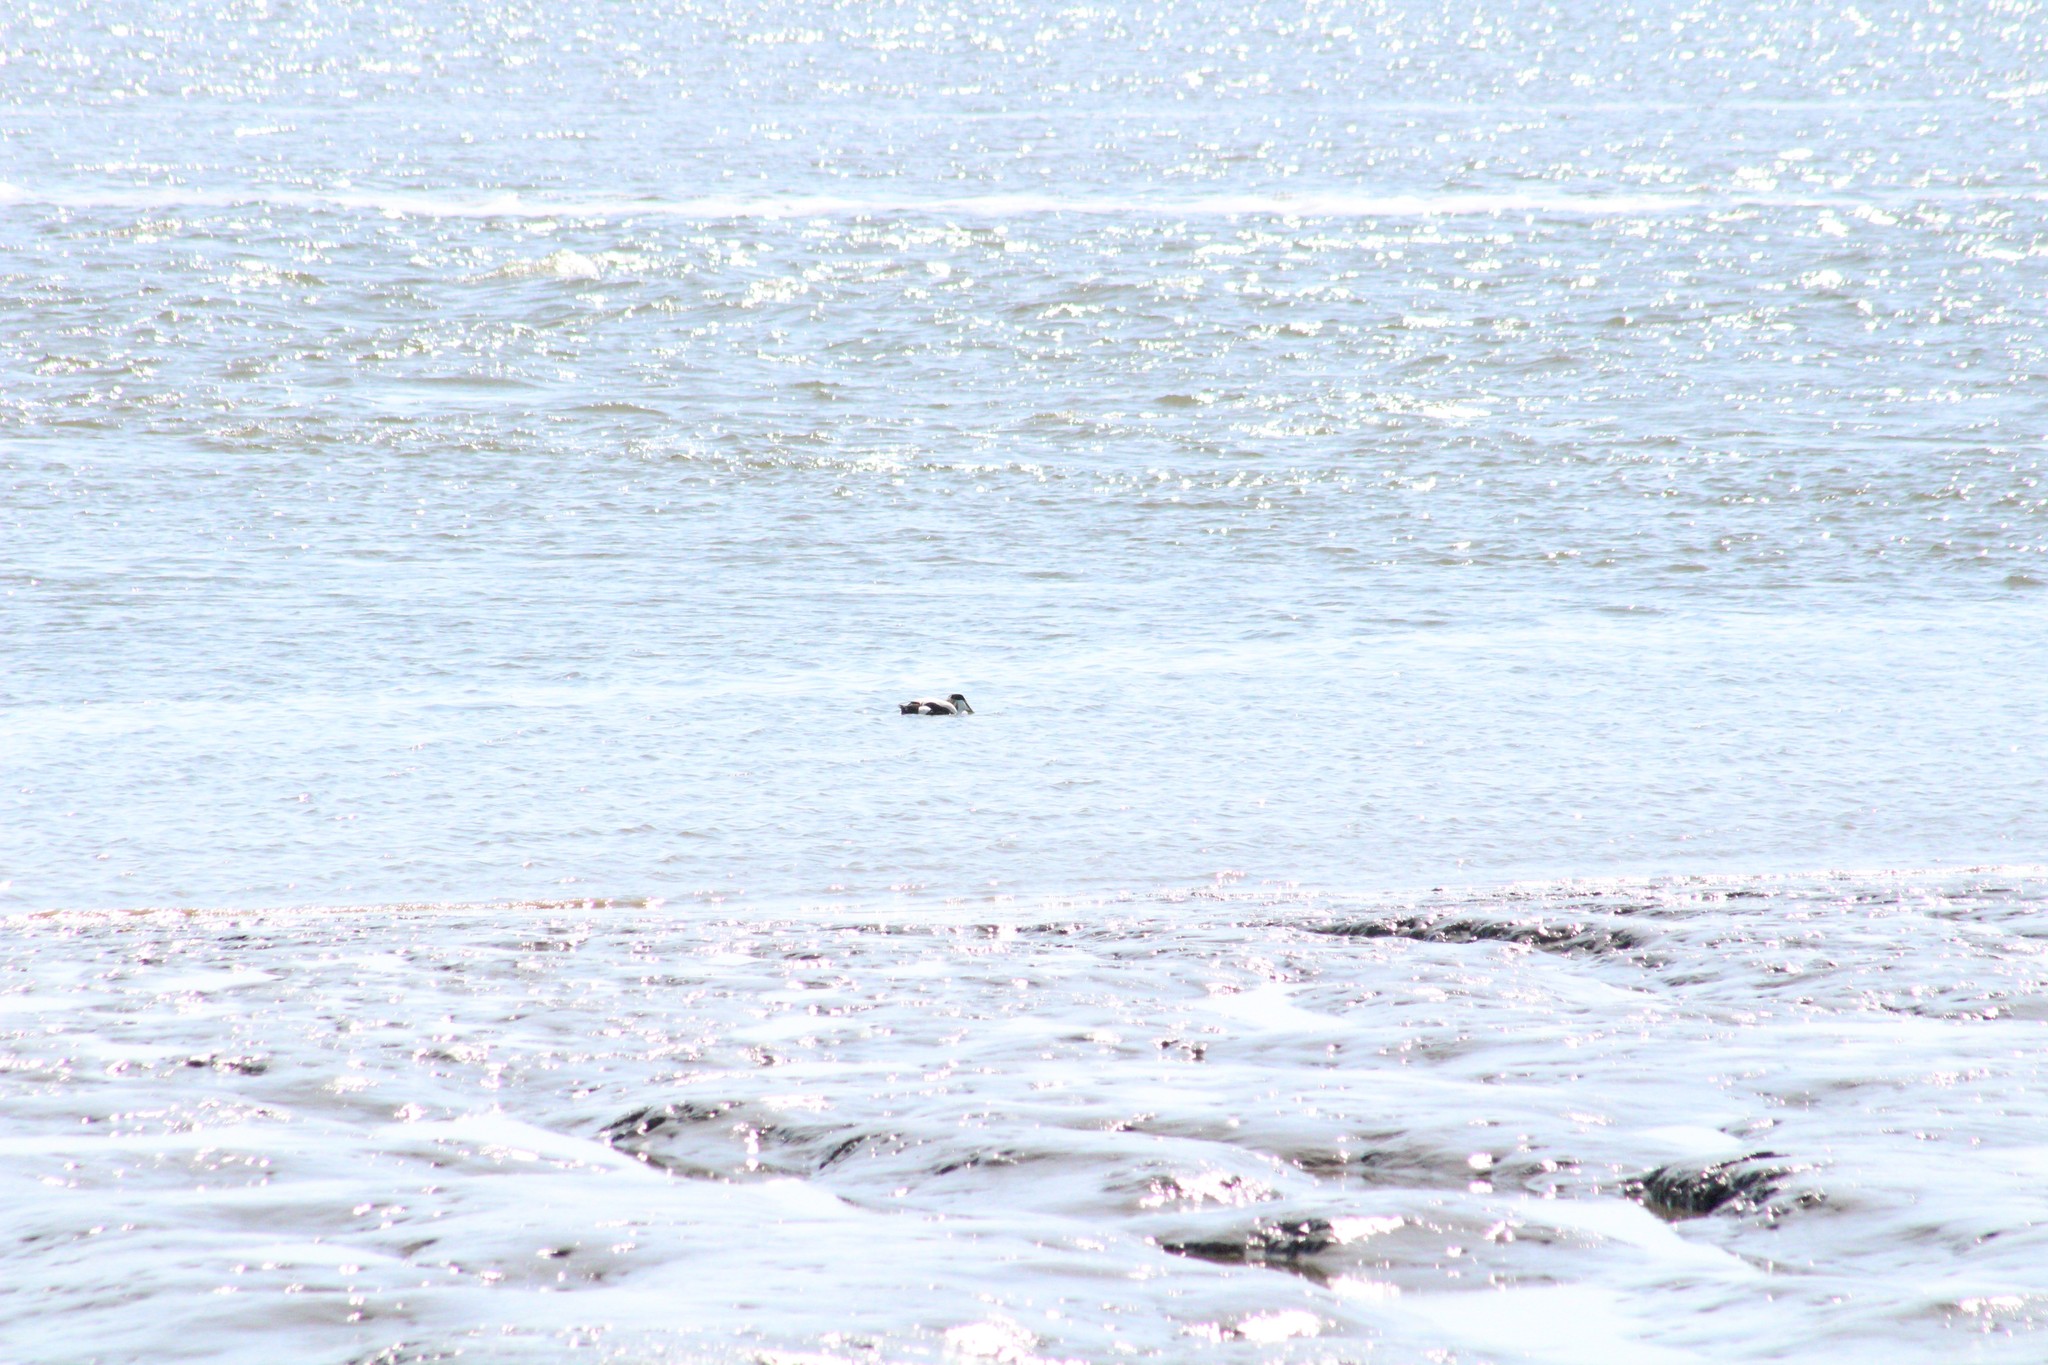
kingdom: Animalia
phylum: Chordata
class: Aves
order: Anseriformes
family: Anatidae
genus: Somateria
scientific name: Somateria mollissima
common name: Common eider
